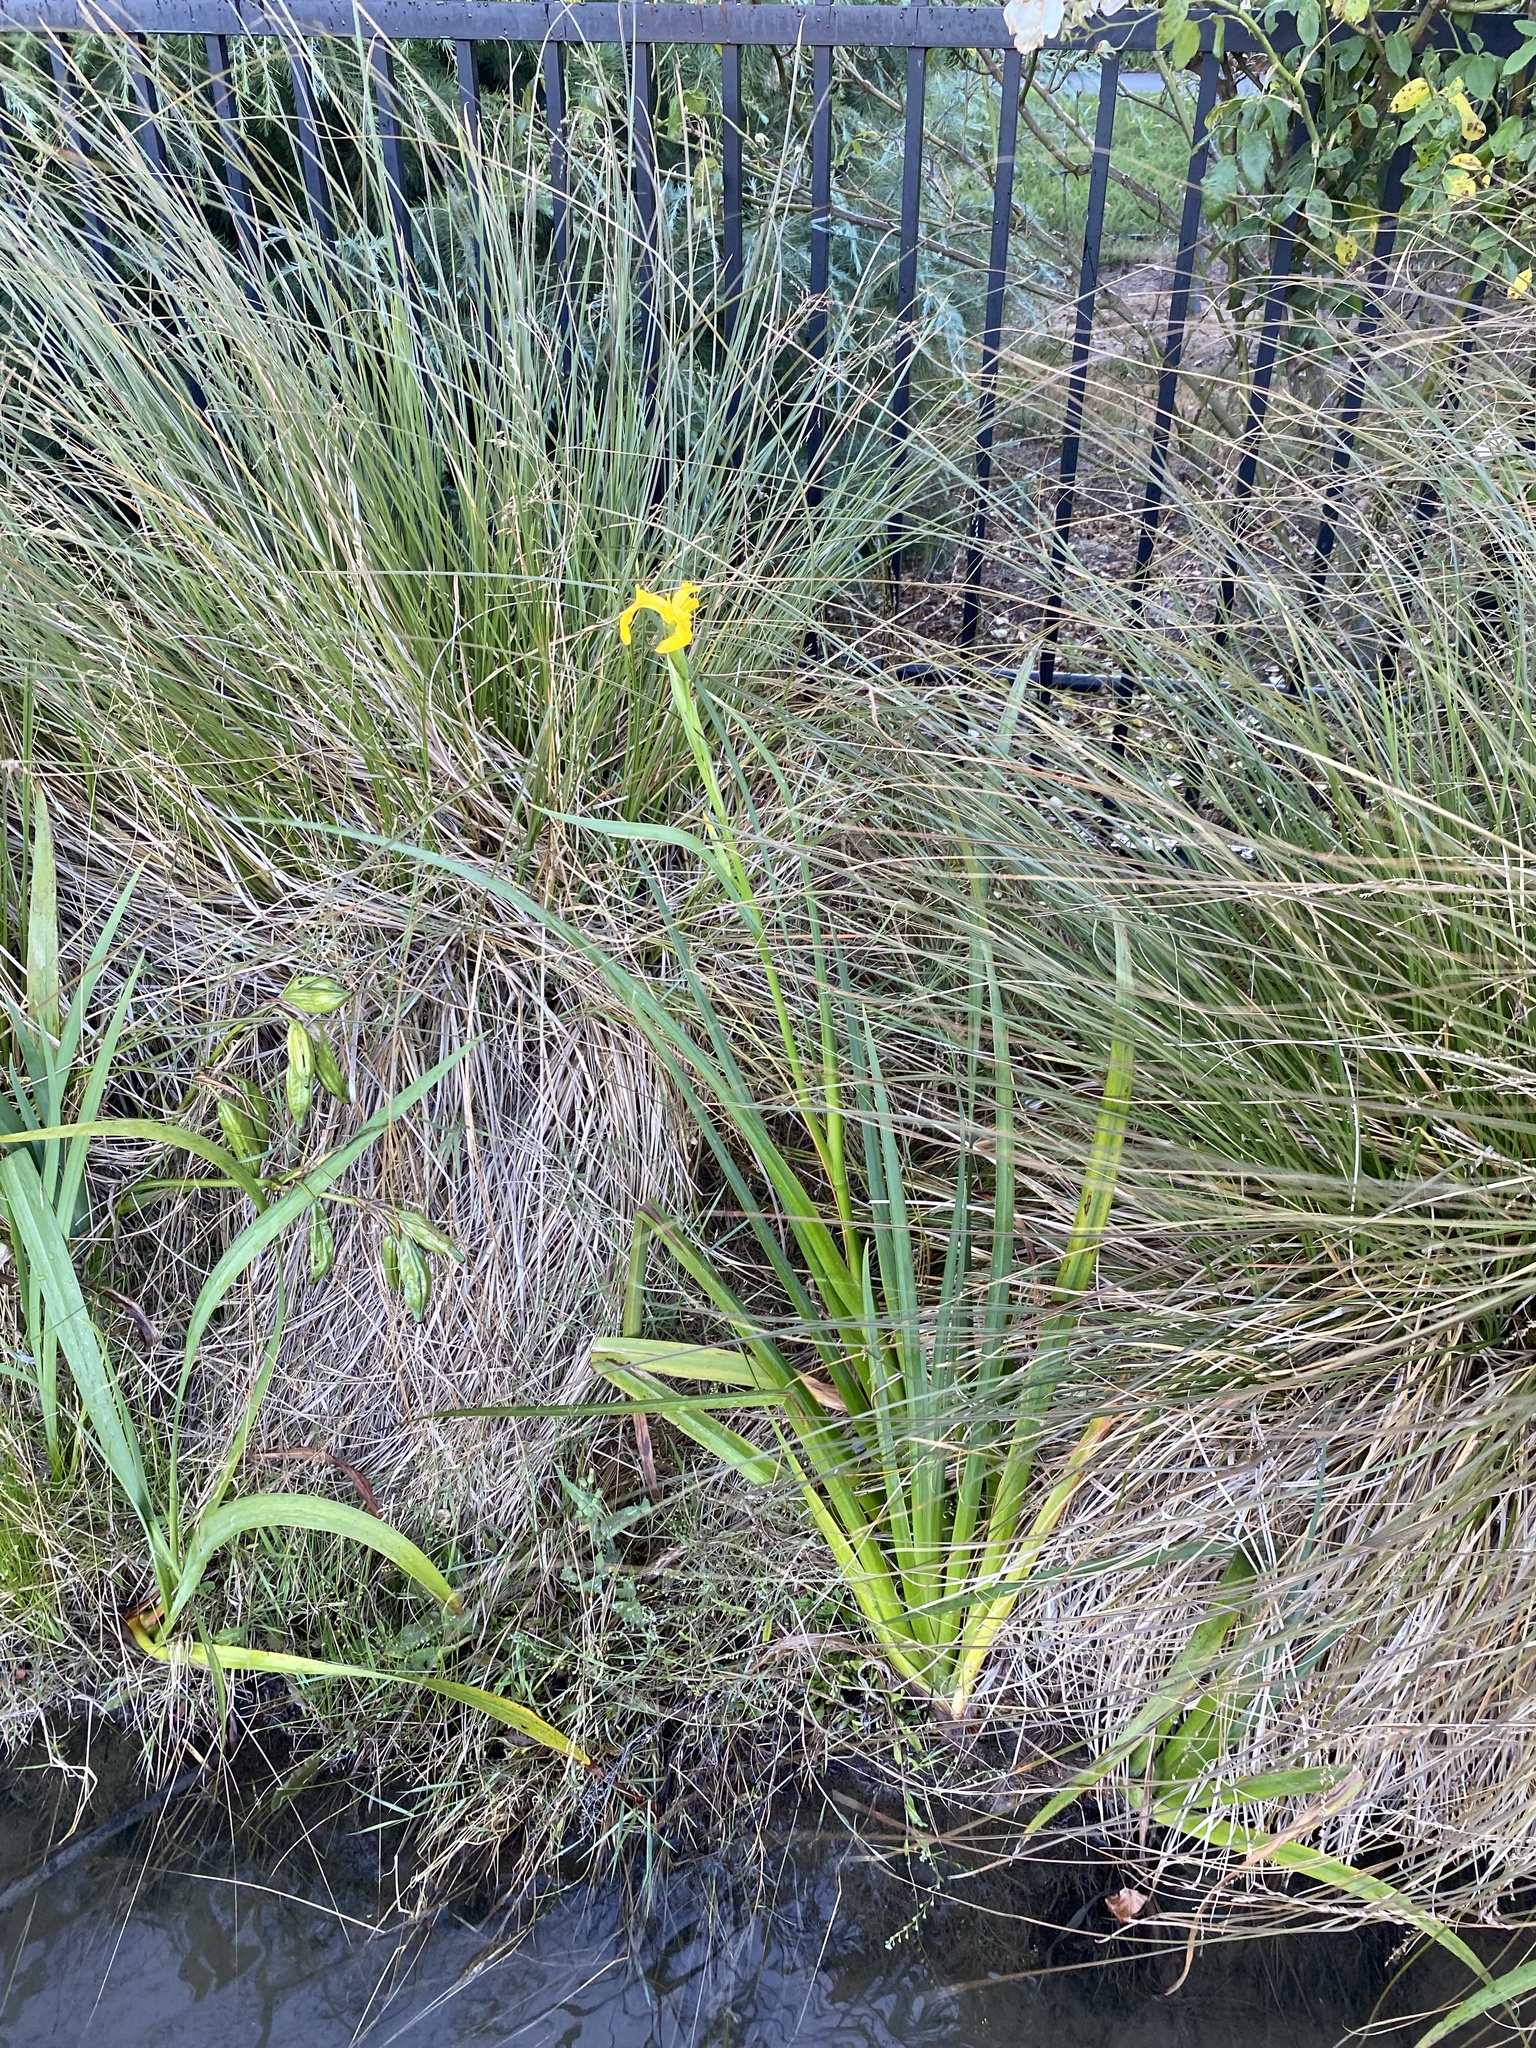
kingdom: Plantae
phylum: Tracheophyta
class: Liliopsida
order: Asparagales
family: Iridaceae
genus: Iris
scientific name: Iris pseudacorus
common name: Yellow flag
